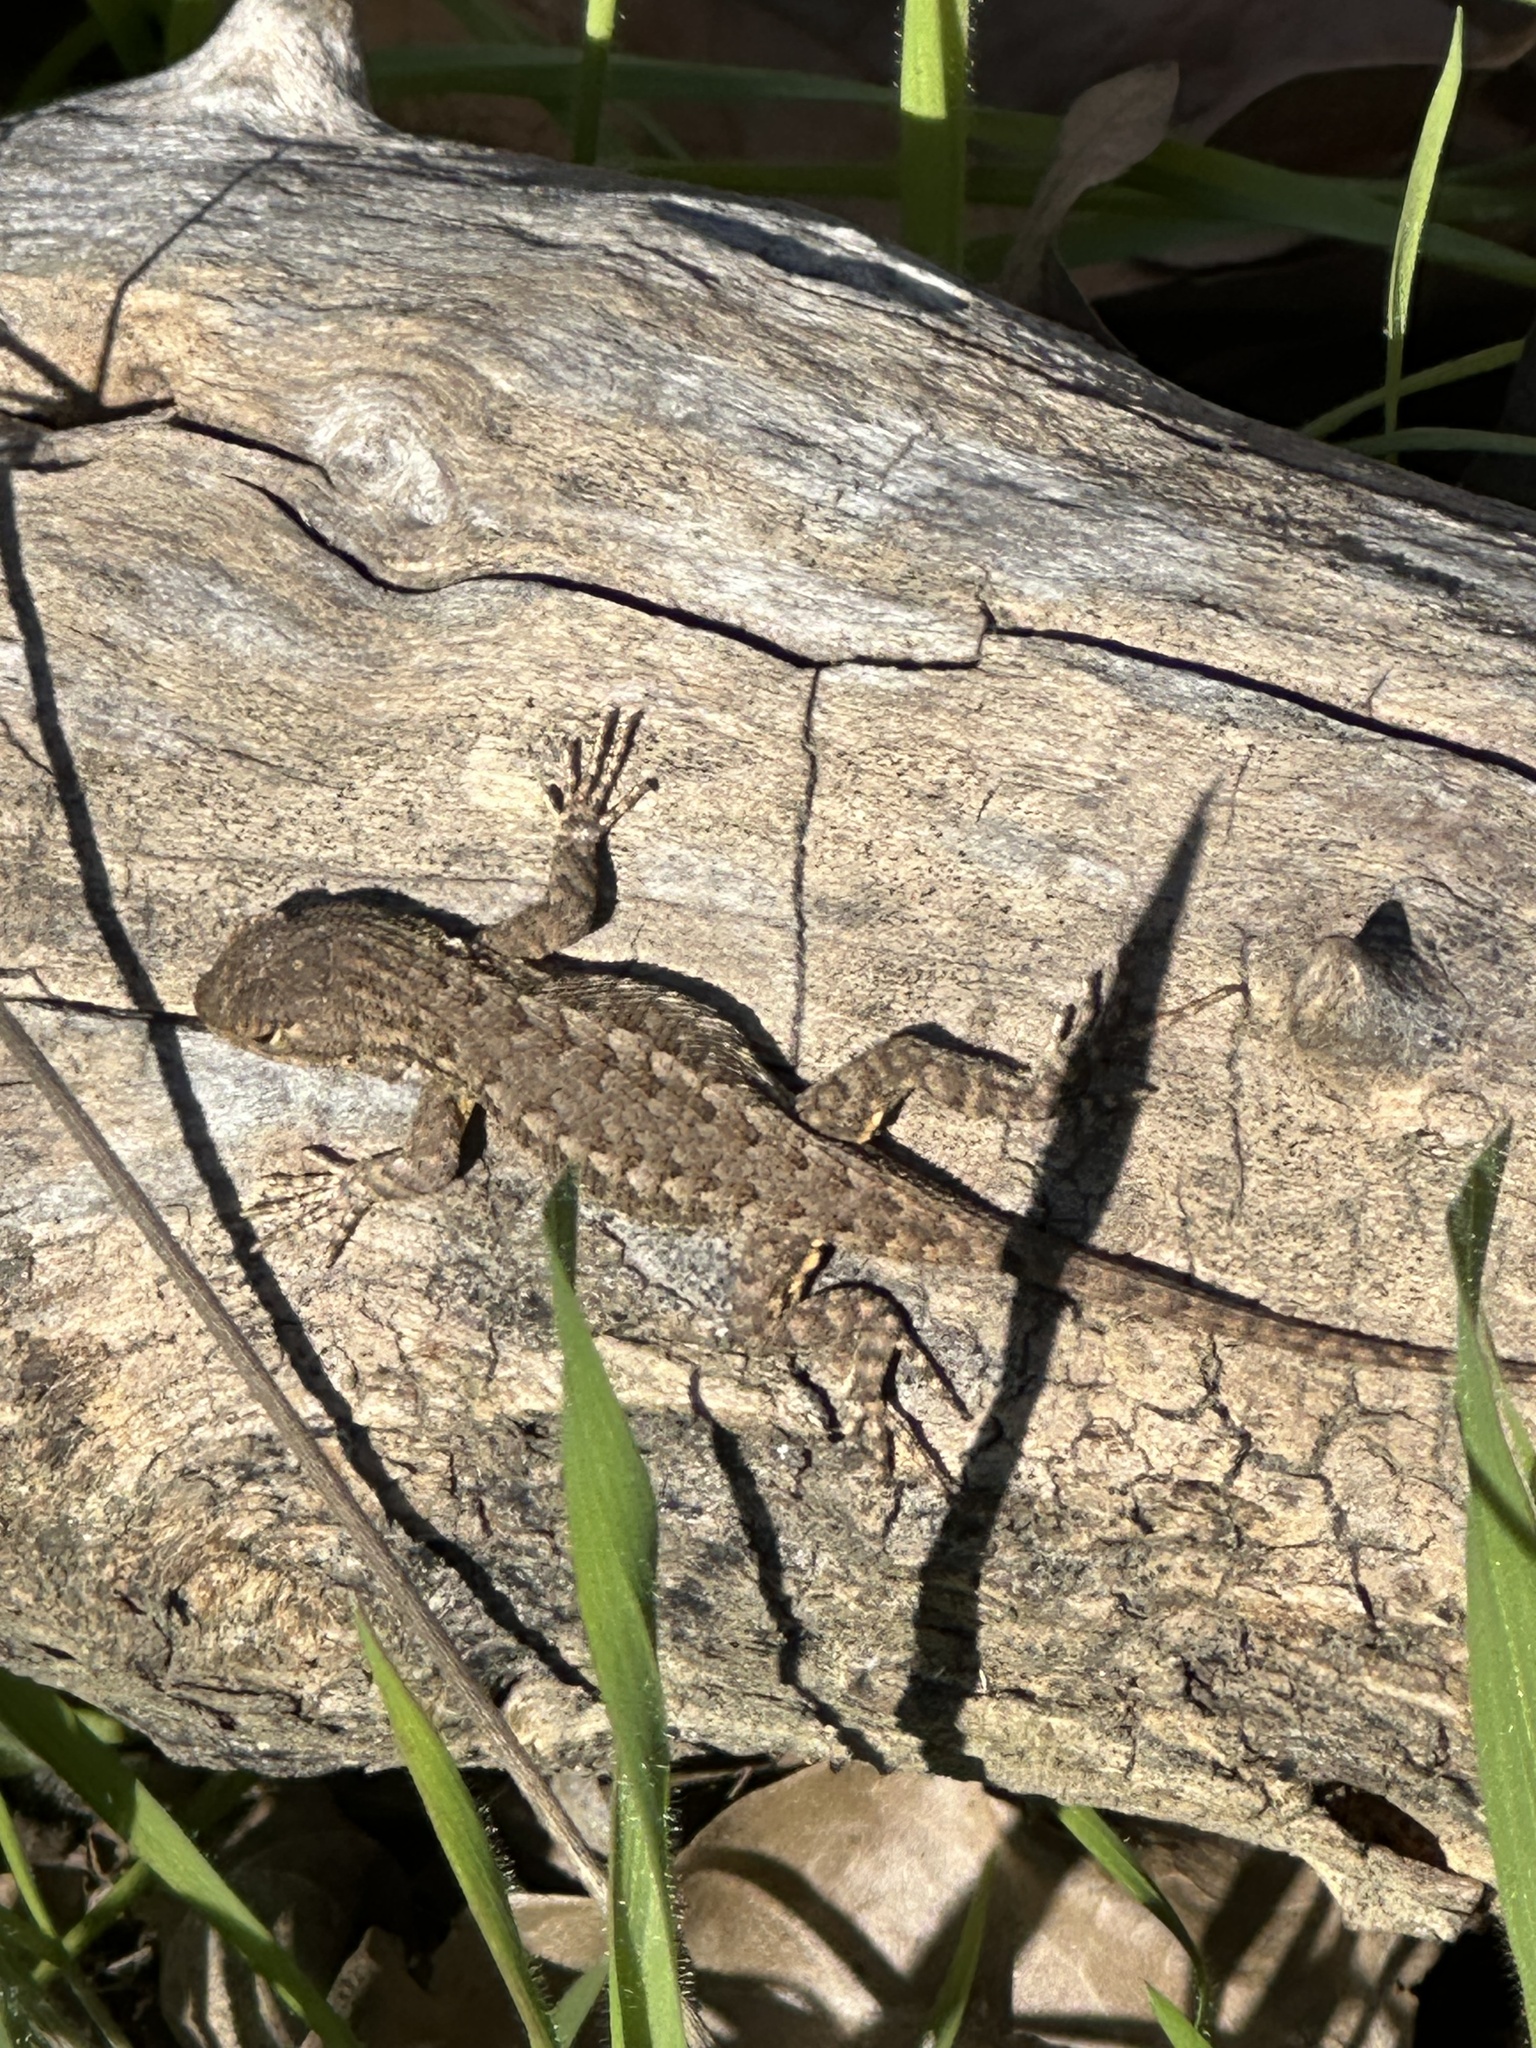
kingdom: Animalia
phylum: Chordata
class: Squamata
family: Phrynosomatidae
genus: Sceloporus
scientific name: Sceloporus occidentalis
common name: Western fence lizard
